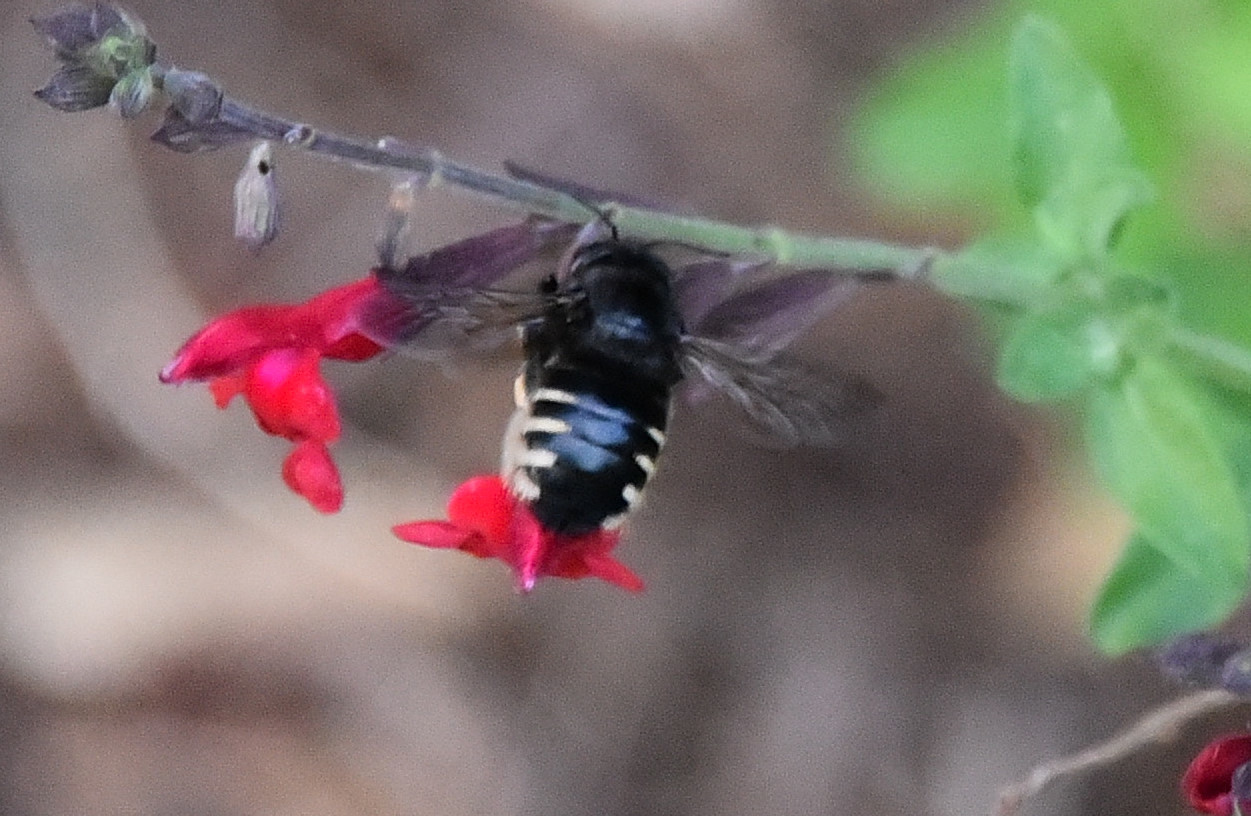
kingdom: Animalia
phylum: Arthropoda
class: Insecta
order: Hymenoptera
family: Apidae
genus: Xylocopa
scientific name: Xylocopa tabaniformis
